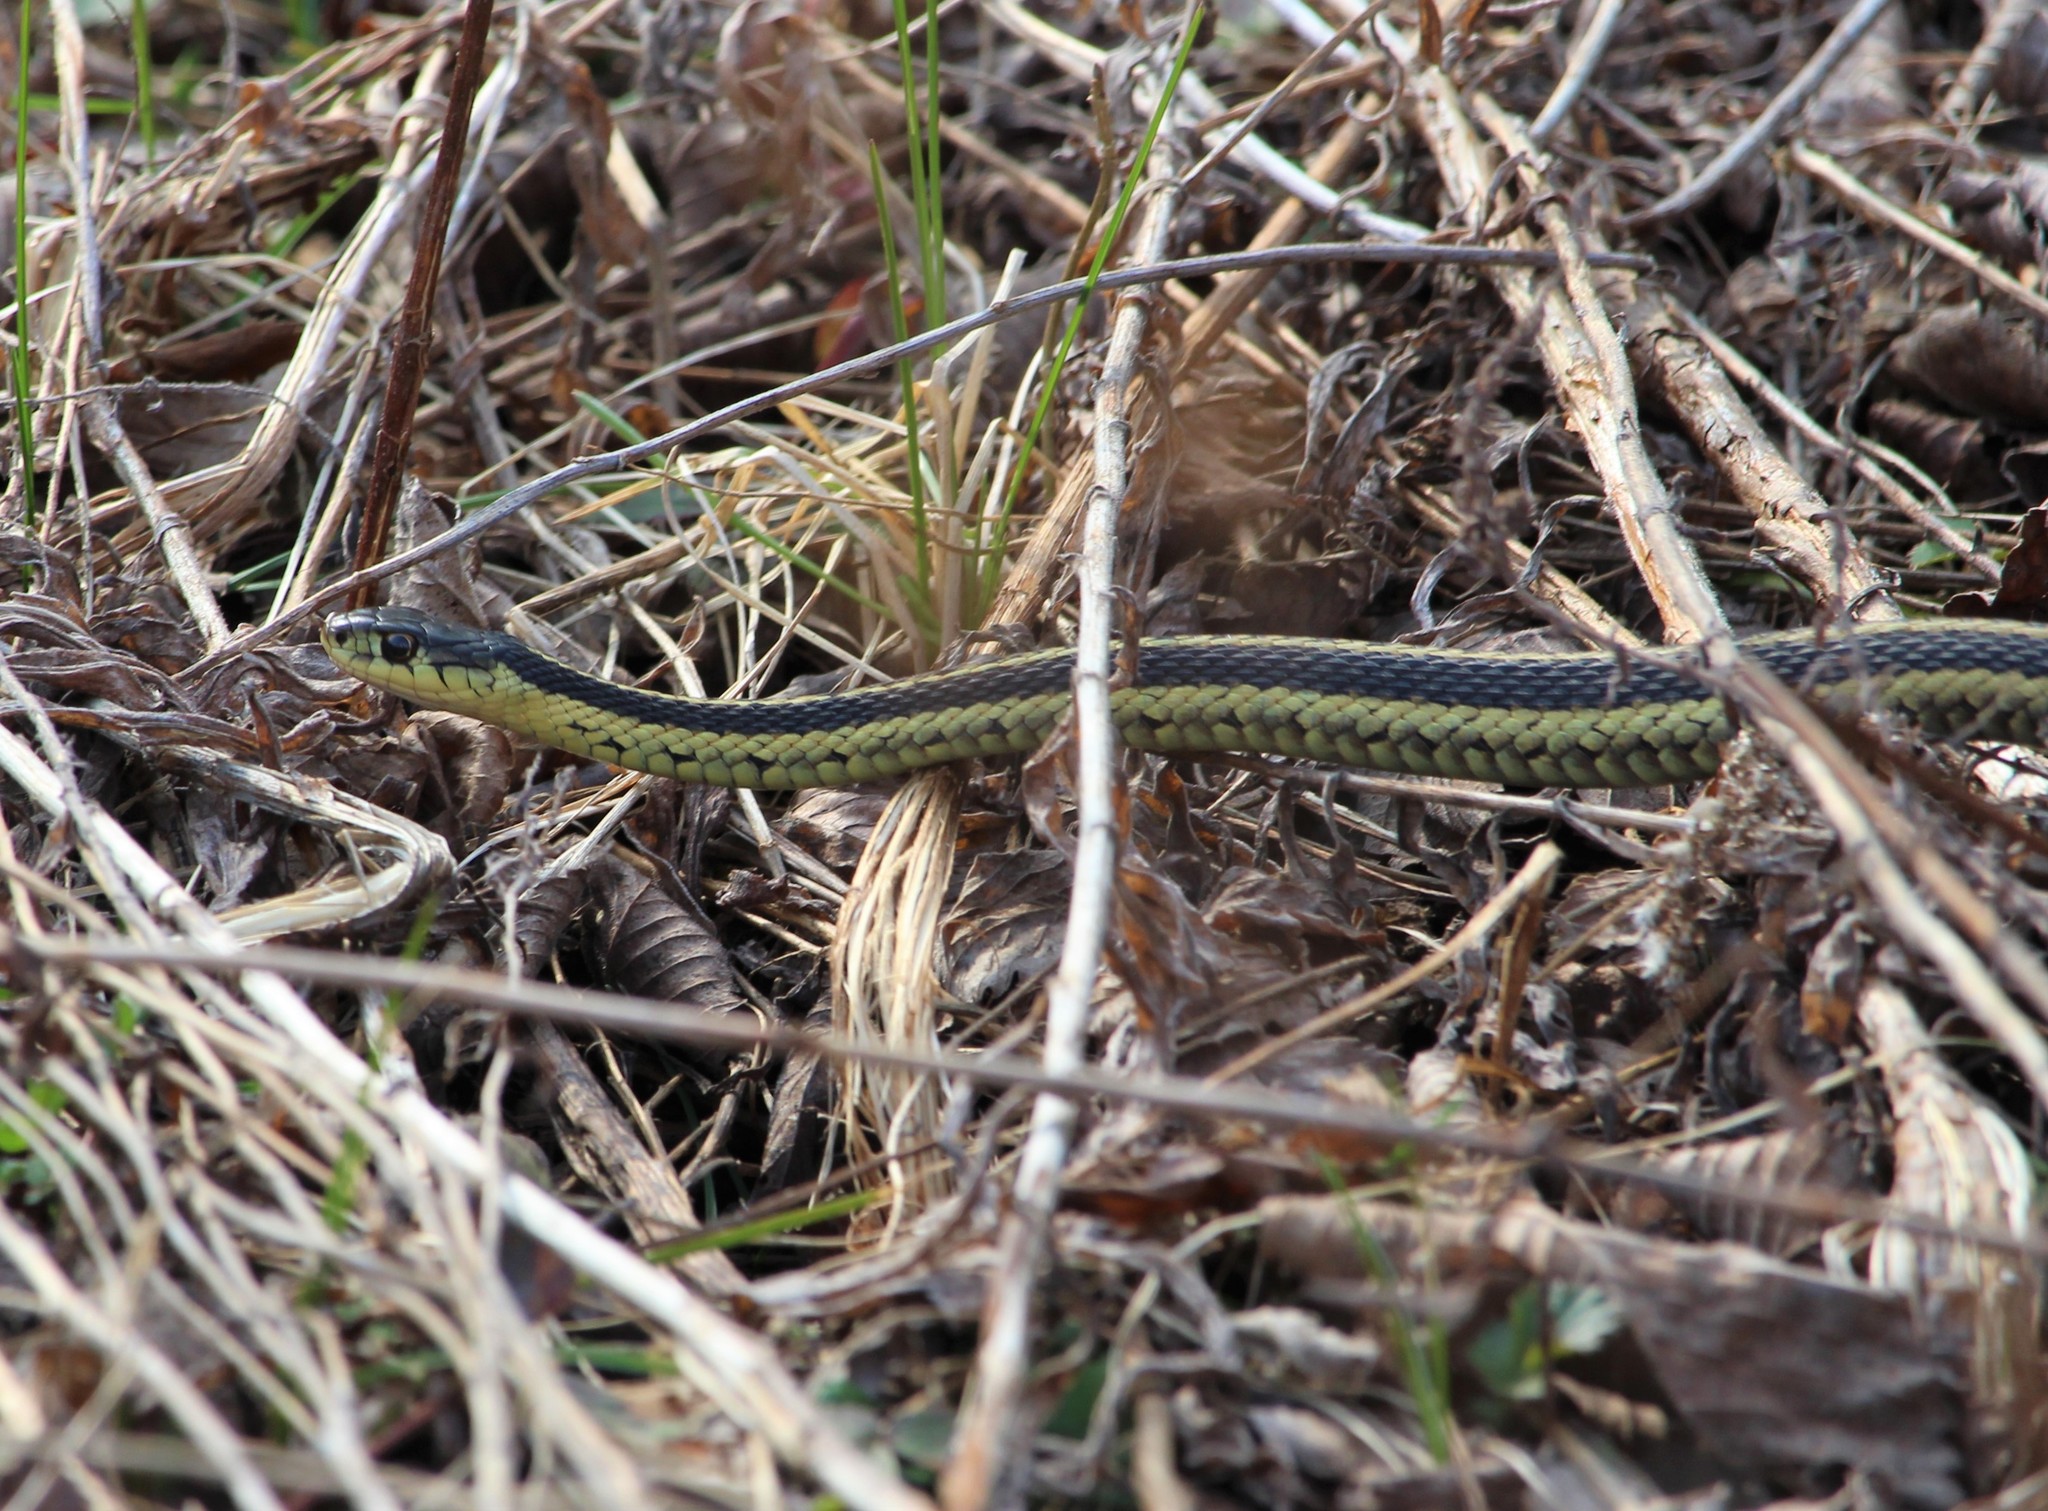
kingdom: Animalia
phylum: Chordata
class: Squamata
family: Colubridae
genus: Thamnophis
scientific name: Thamnophis sirtalis
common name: Common garter snake
